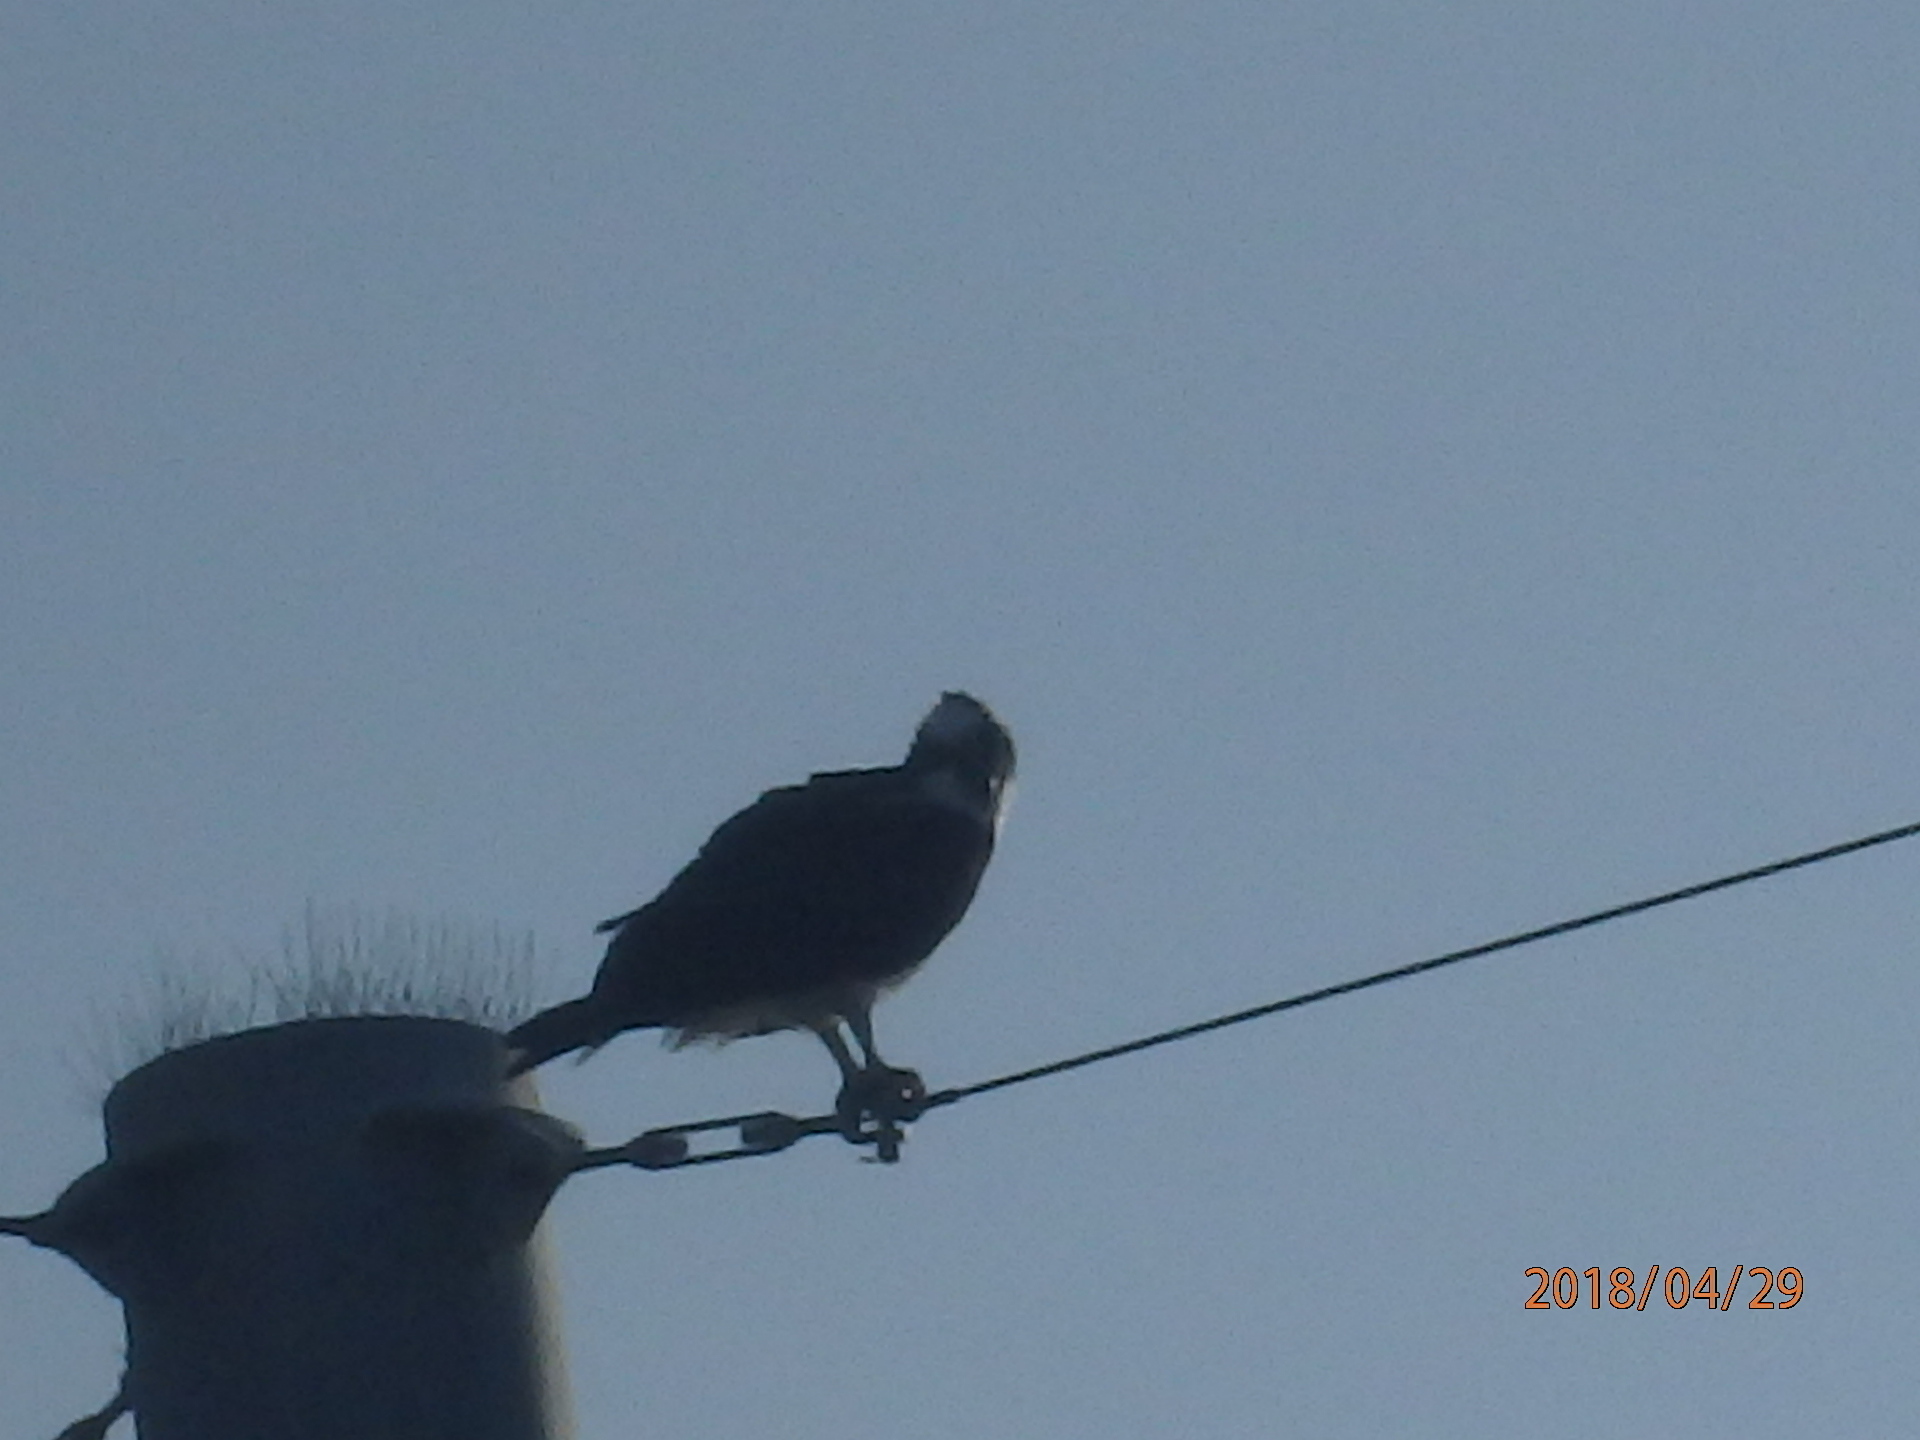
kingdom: Animalia
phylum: Chordata
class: Aves
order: Accipitriformes
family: Pandionidae
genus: Pandion
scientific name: Pandion haliaetus
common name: Osprey
